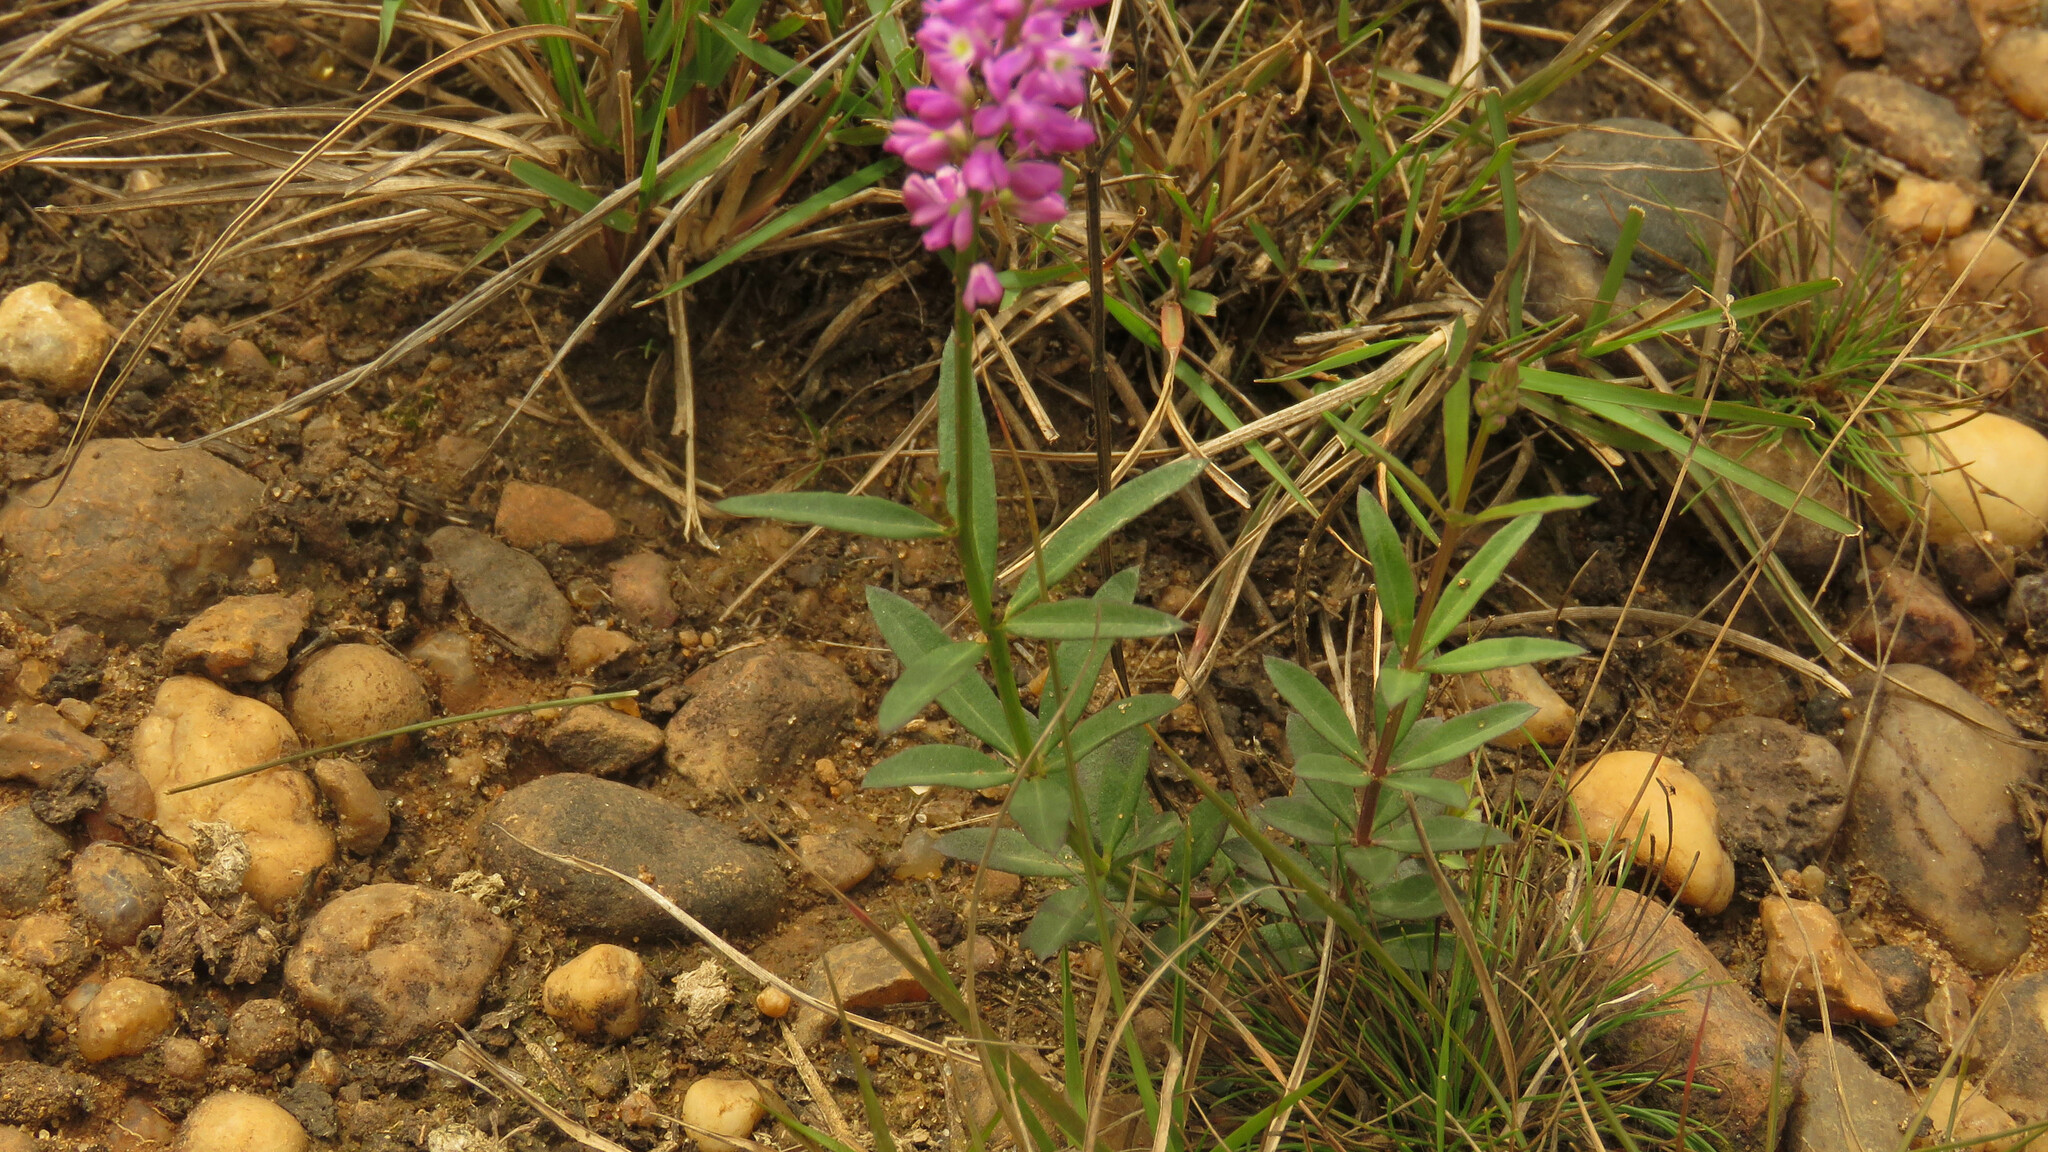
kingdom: Plantae
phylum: Tracheophyta
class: Magnoliopsida
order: Fabales
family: Polygalaceae
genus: Polygala
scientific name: Polygala molluginifolia
